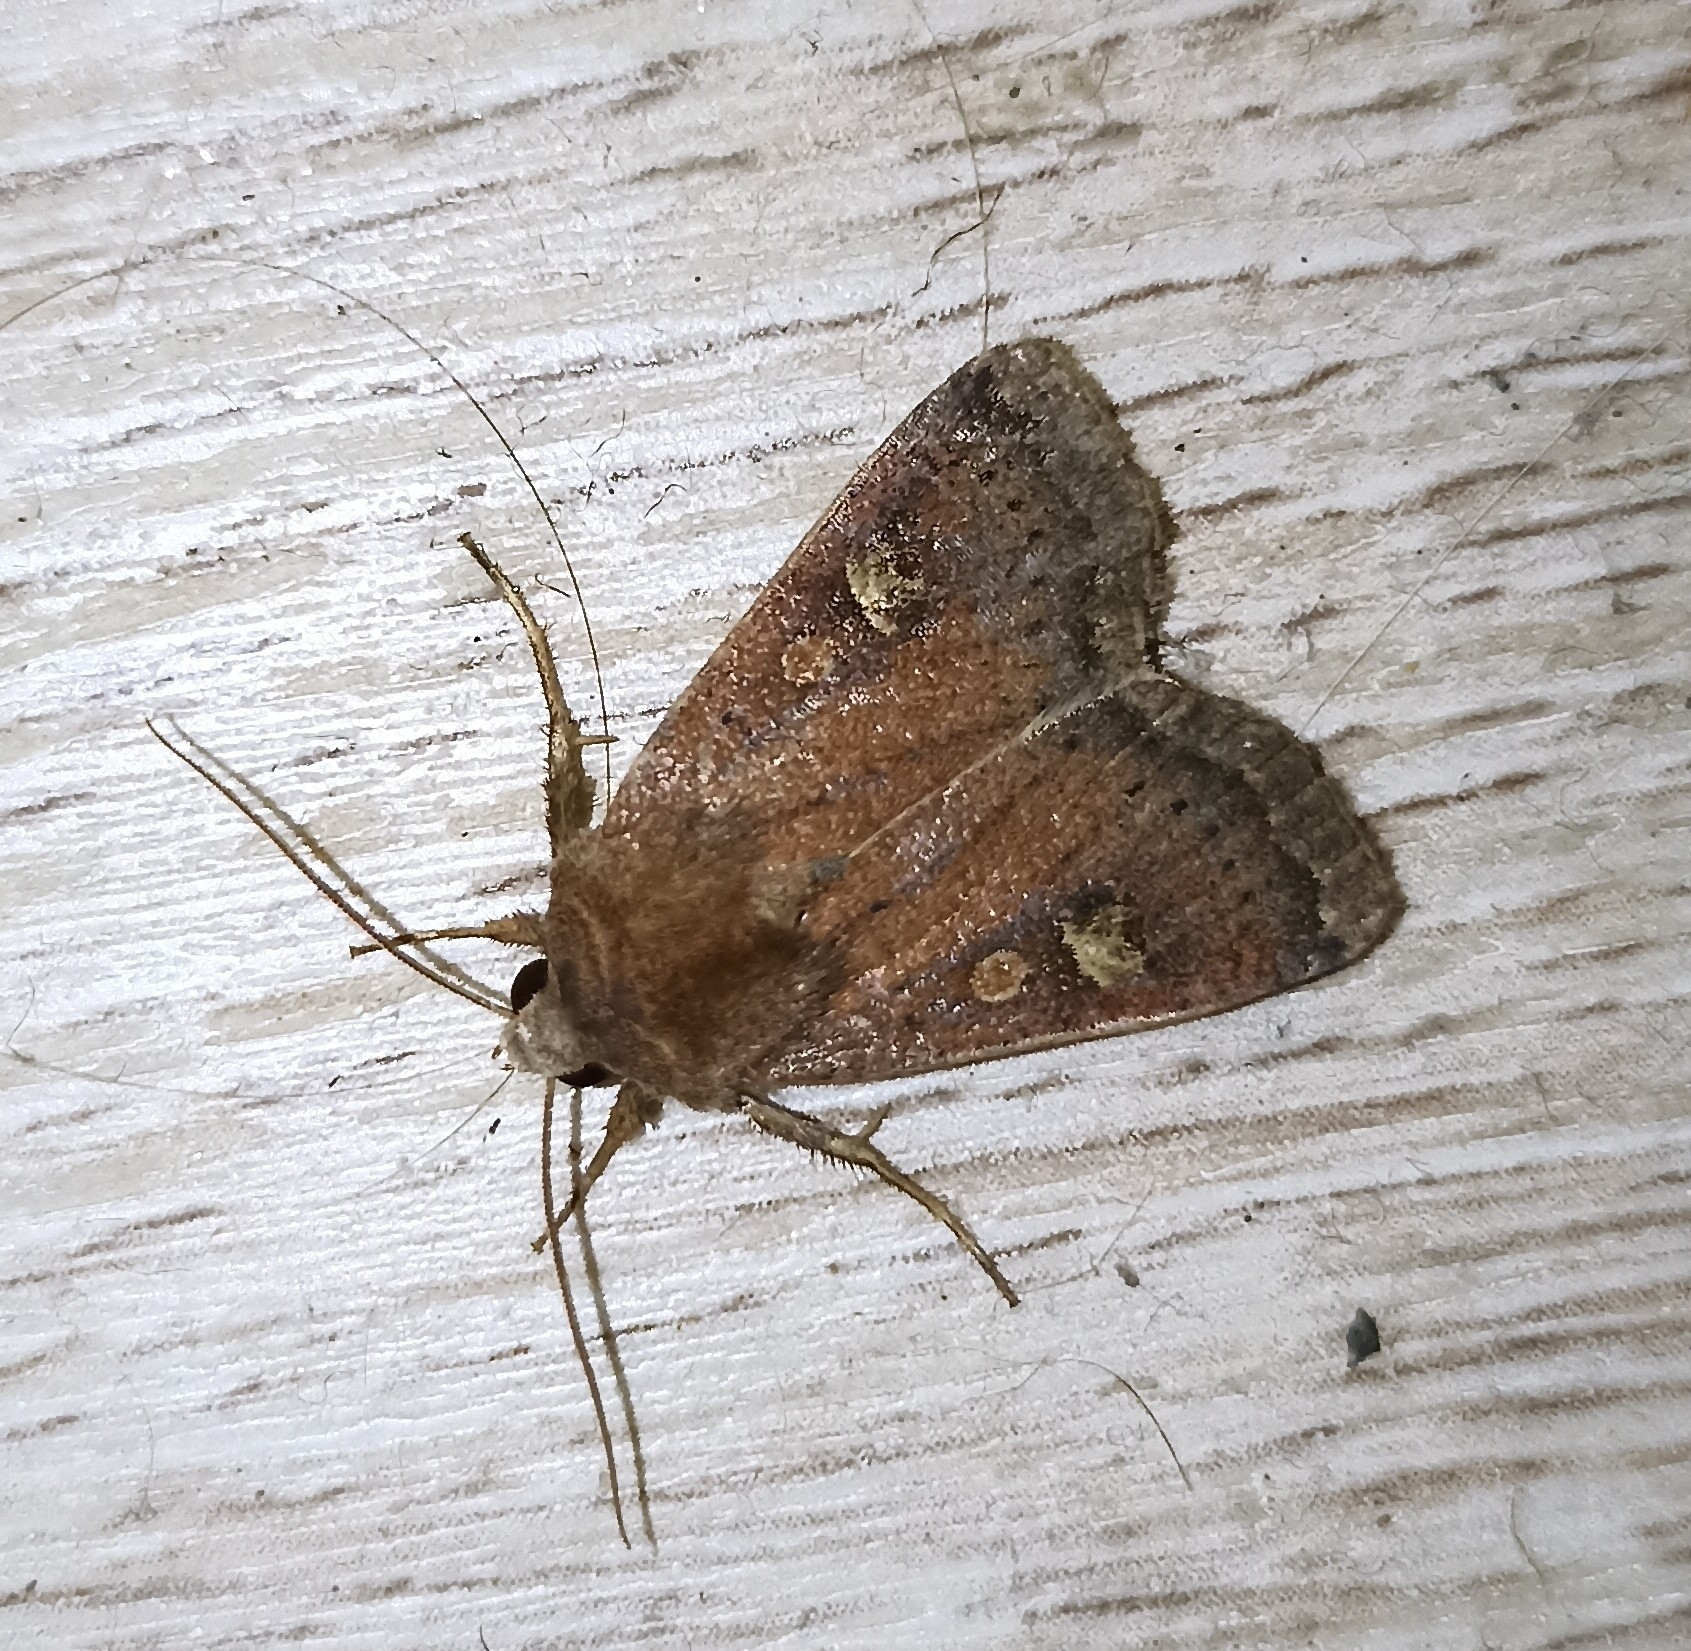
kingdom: Animalia
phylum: Arthropoda
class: Insecta
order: Lepidoptera
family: Noctuidae
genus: Xestia
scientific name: Xestia xanthographa
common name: Square-spot rustic
